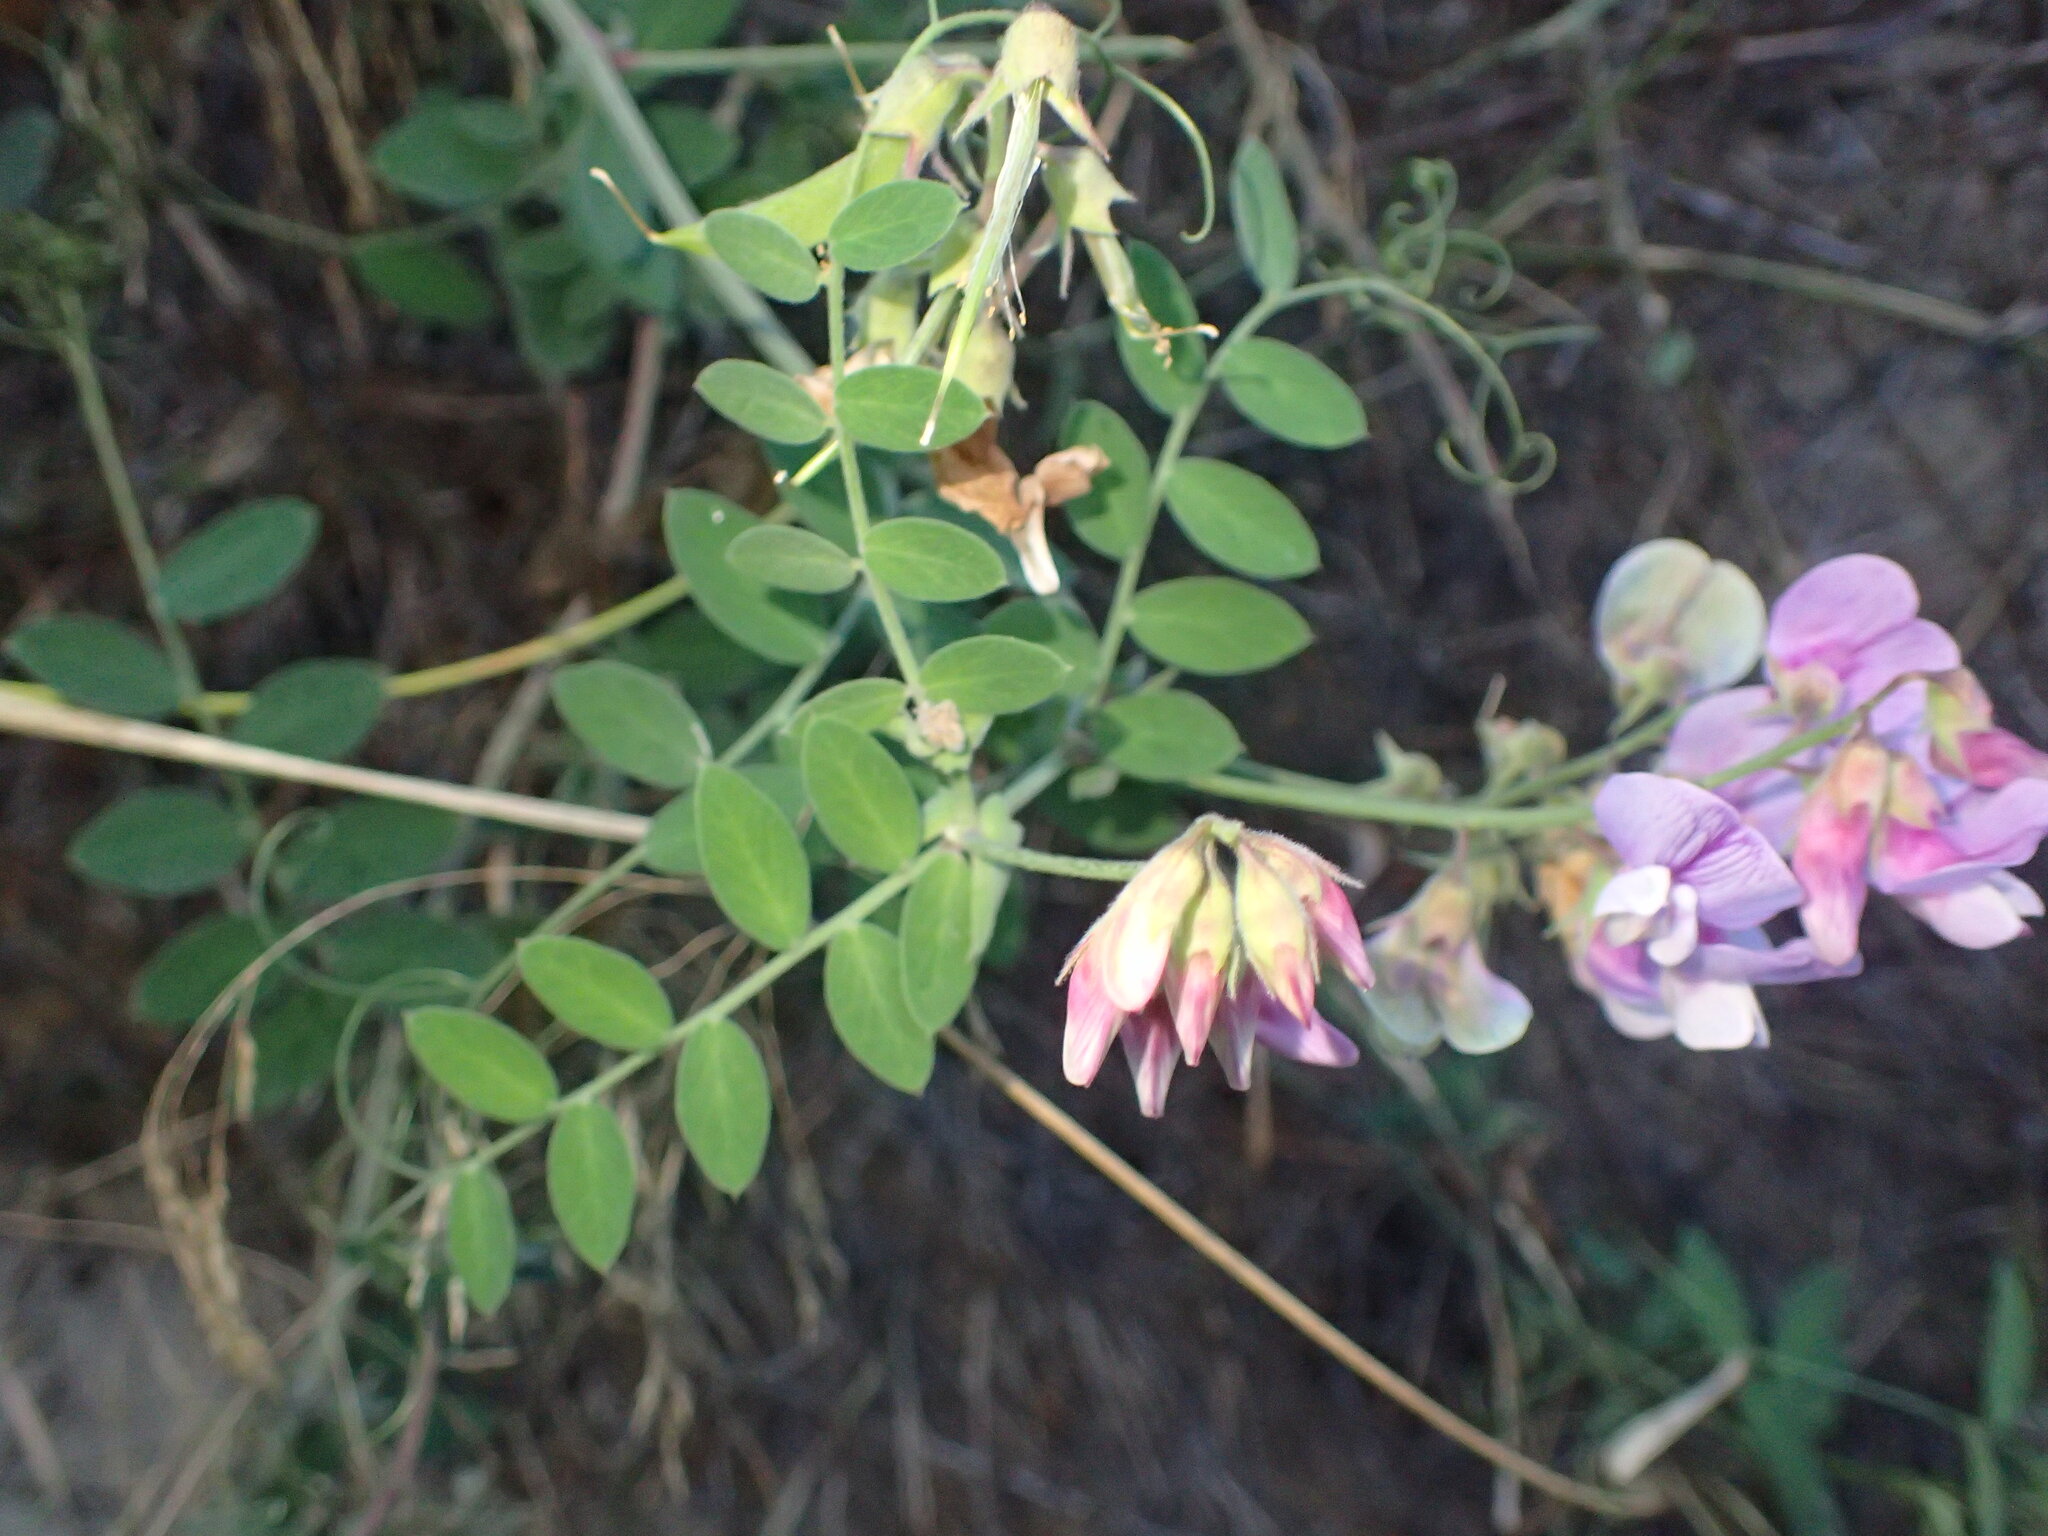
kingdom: Plantae
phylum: Tracheophyta
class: Magnoliopsida
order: Fabales
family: Fabaceae
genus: Lathyrus
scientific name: Lathyrus vestitus
